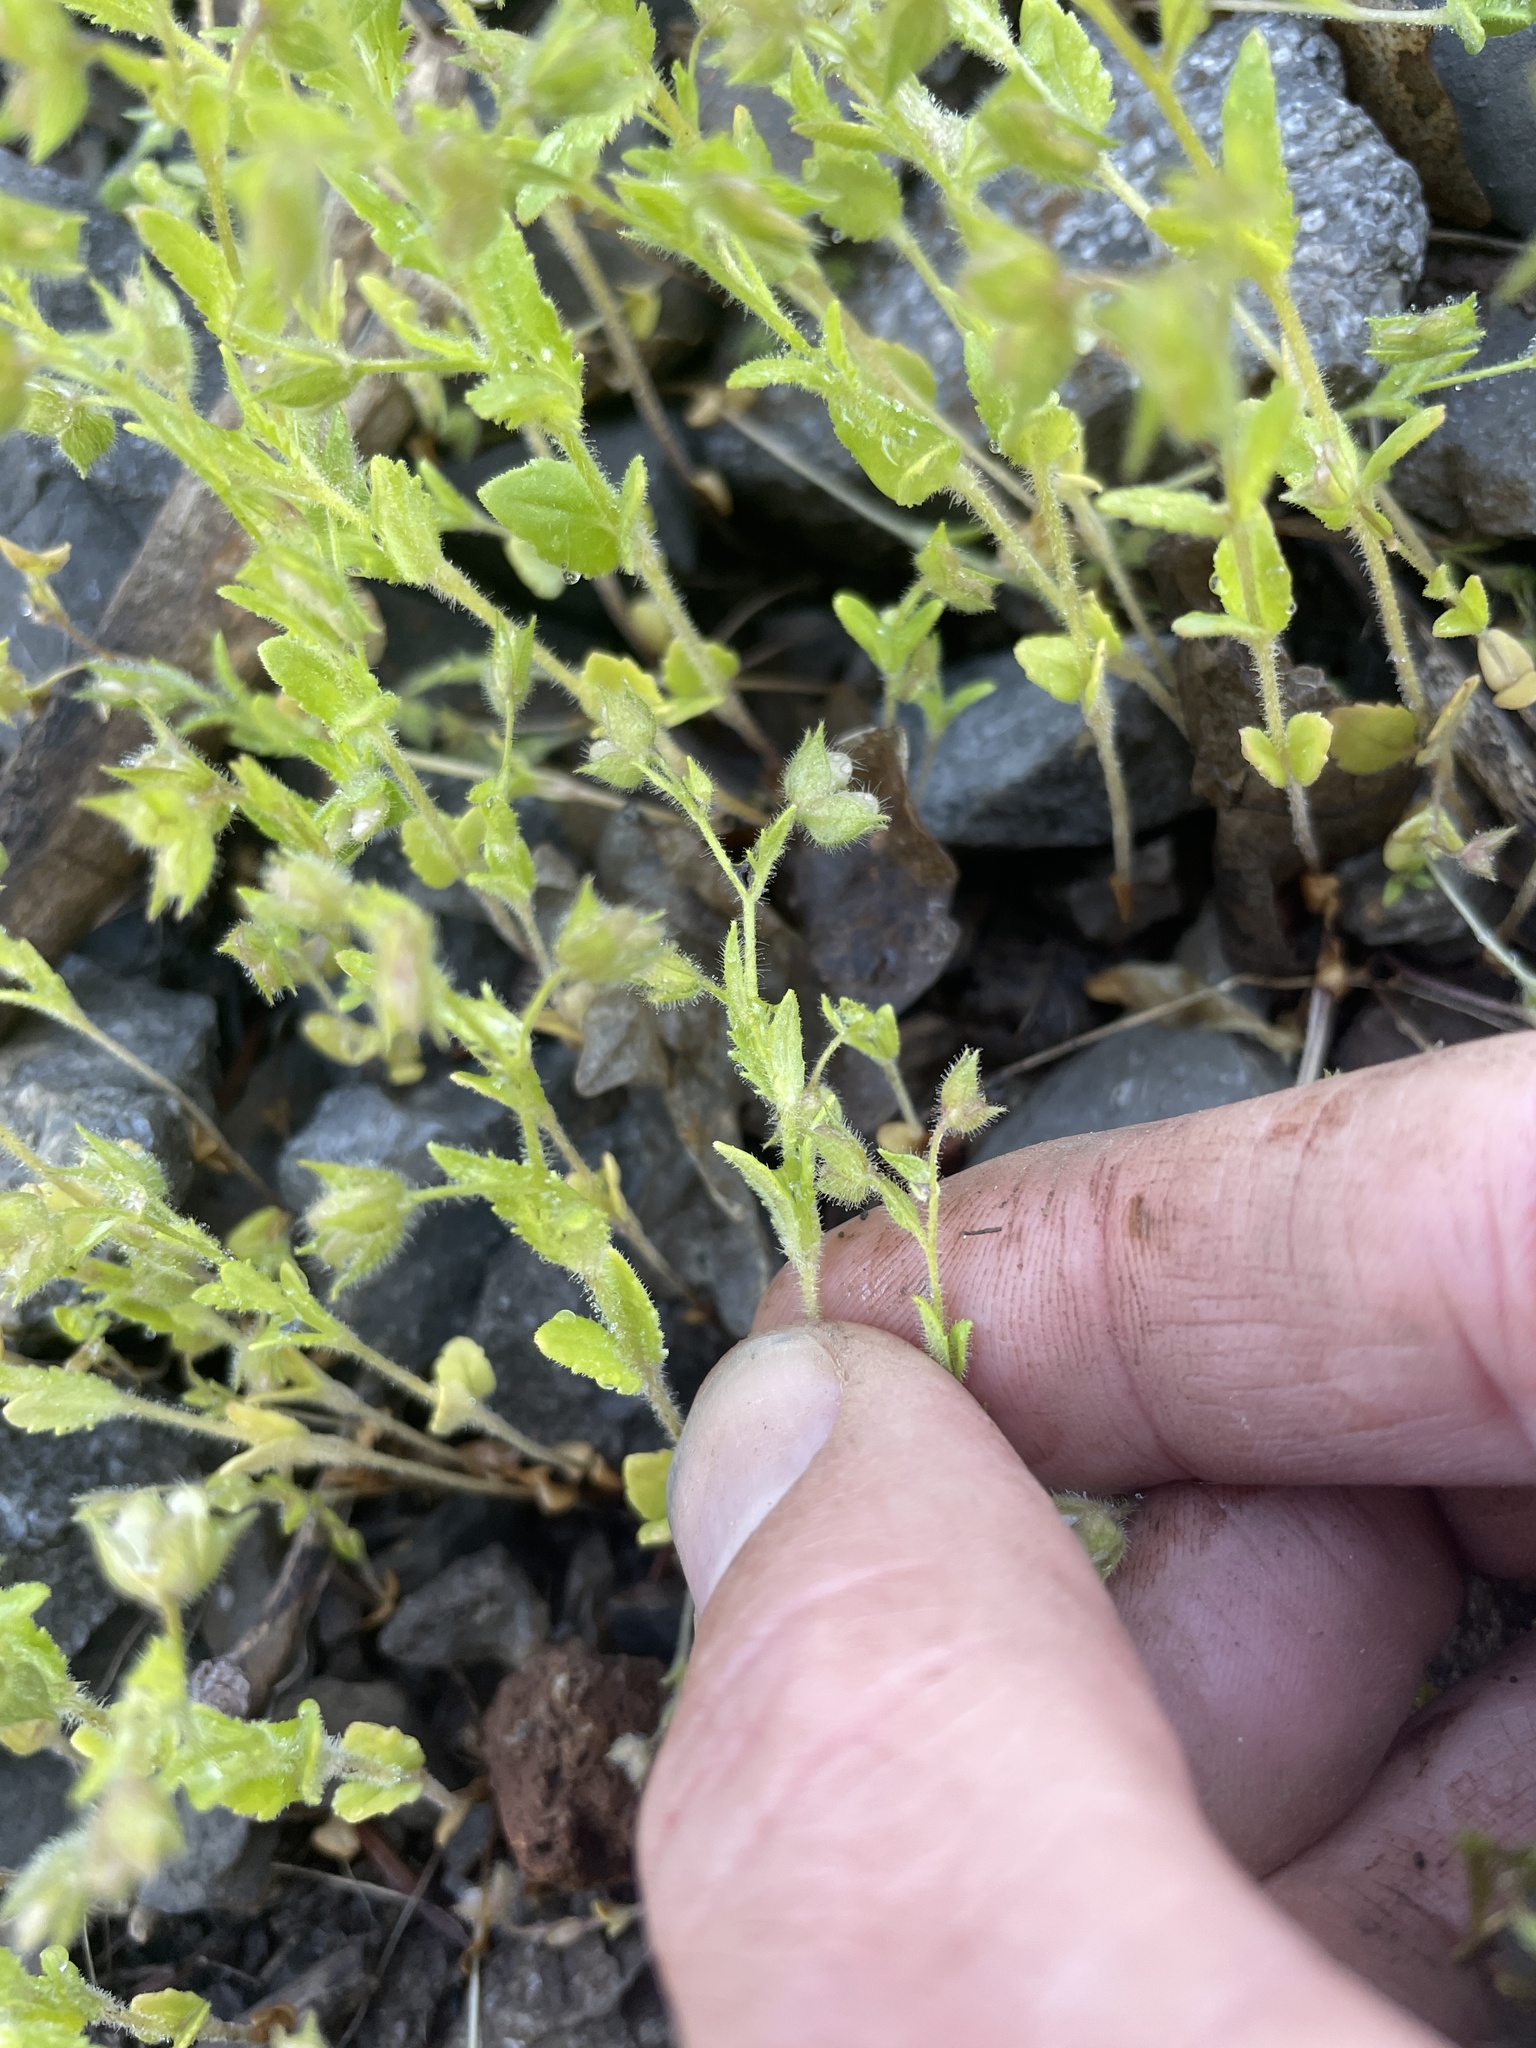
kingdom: Plantae
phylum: Tracheophyta
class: Magnoliopsida
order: Lamiales
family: Plantaginaceae
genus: Veronica
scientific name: Veronica biloba
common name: Twolobe speedwell
